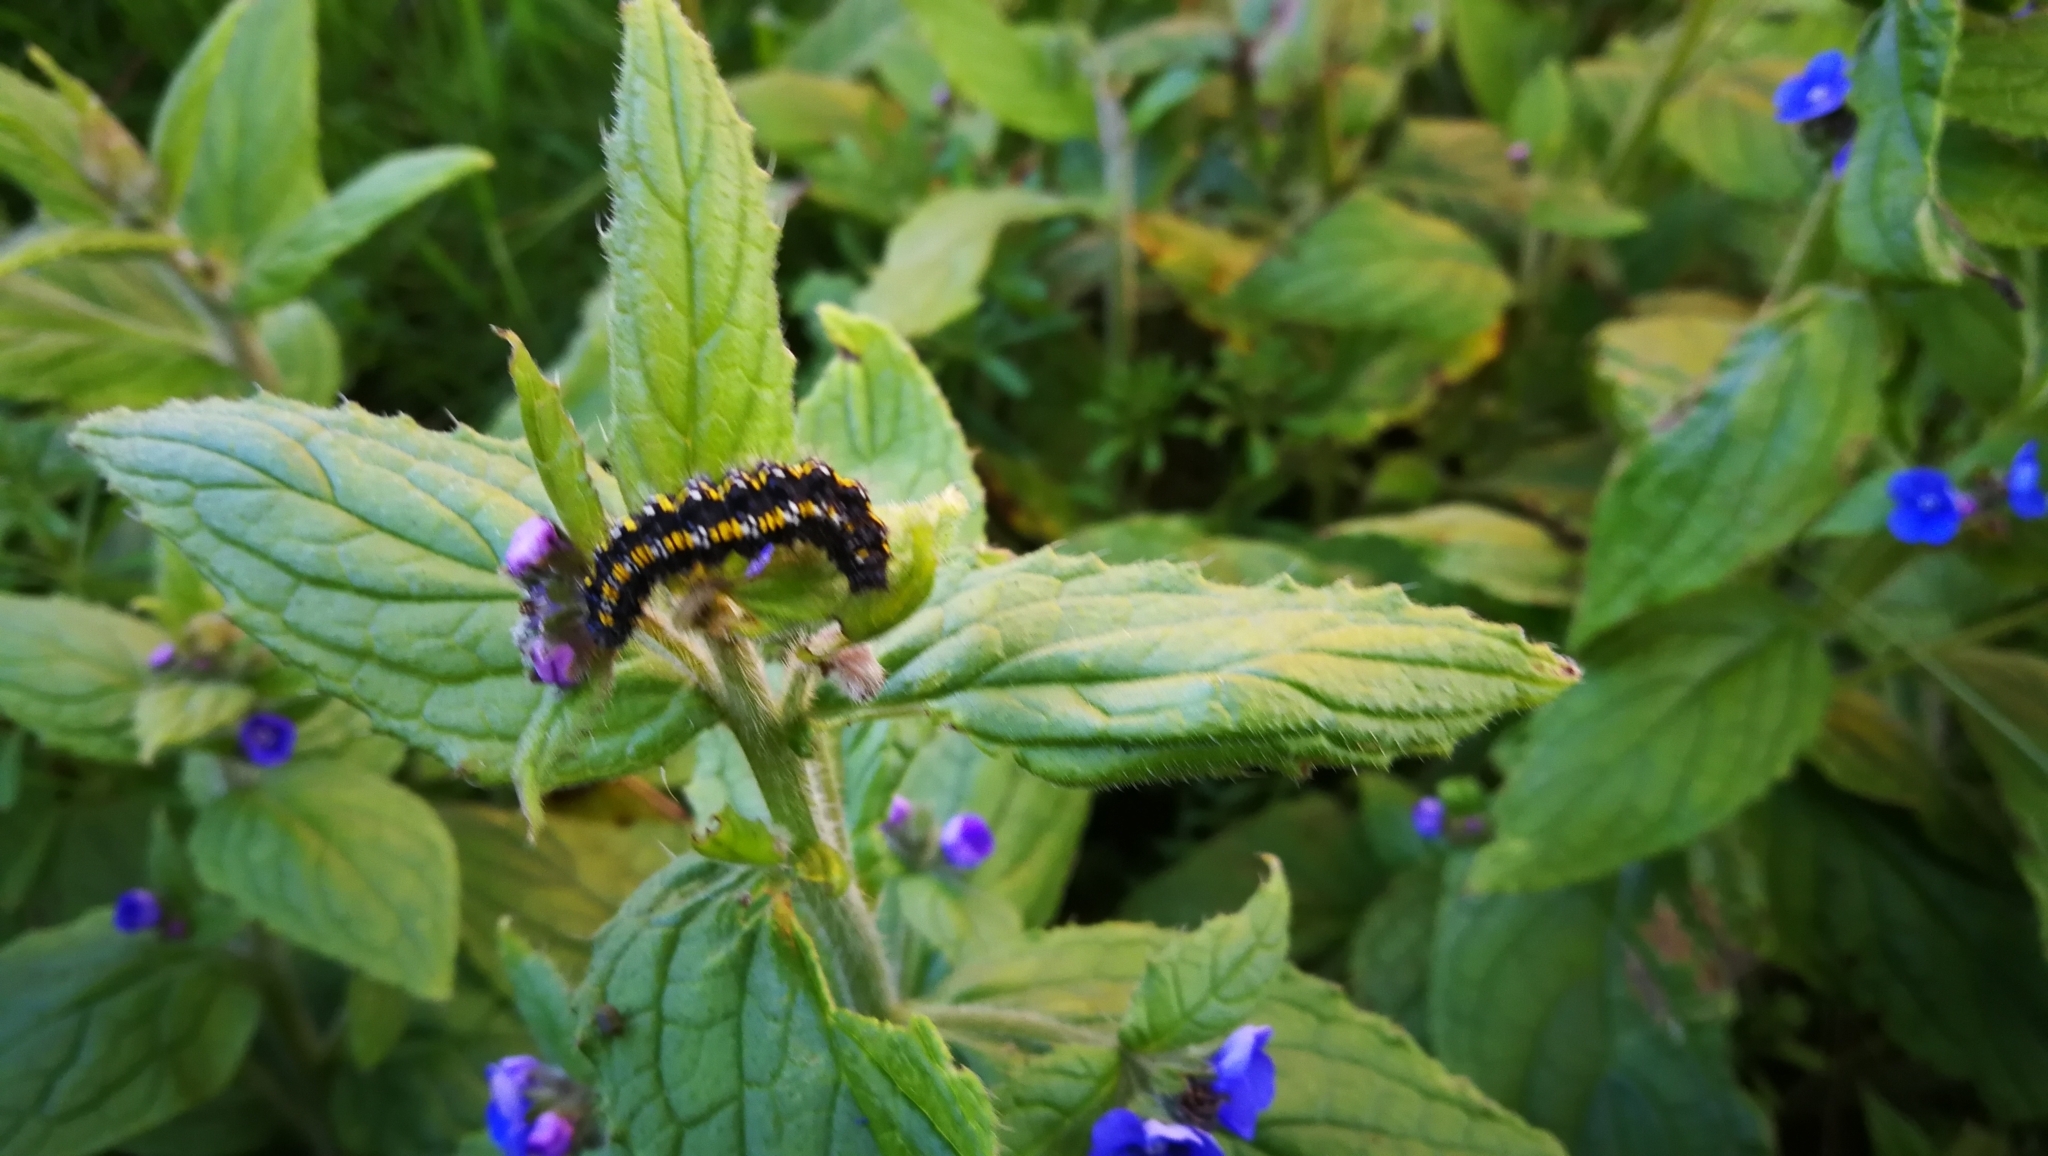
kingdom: Plantae
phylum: Tracheophyta
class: Magnoliopsida
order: Boraginales
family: Boraginaceae
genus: Pentaglottis
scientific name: Pentaglottis sempervirens
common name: Green alkanet
